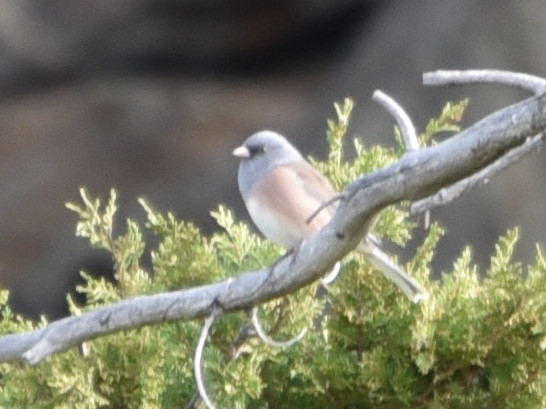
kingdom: Animalia
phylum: Chordata
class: Aves
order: Passeriformes
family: Passerellidae
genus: Junco
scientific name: Junco hyemalis
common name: Dark-eyed junco
